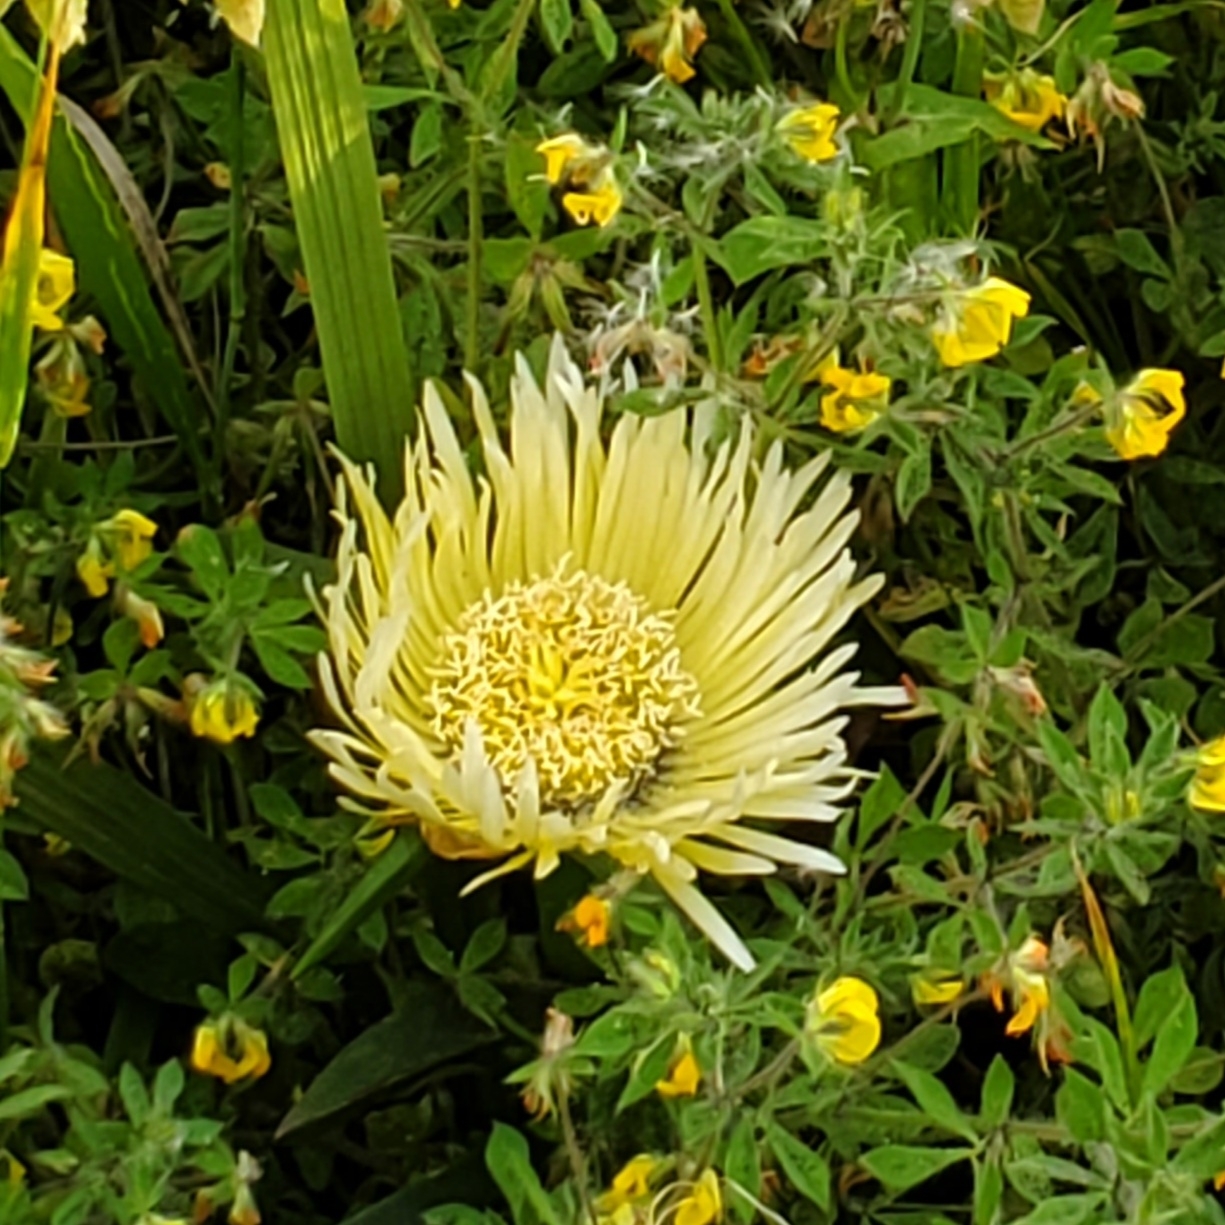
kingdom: Plantae
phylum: Tracheophyta
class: Magnoliopsida
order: Caryophyllales
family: Aizoaceae
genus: Carpobrotus
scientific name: Carpobrotus edulis
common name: Hottentot-fig
